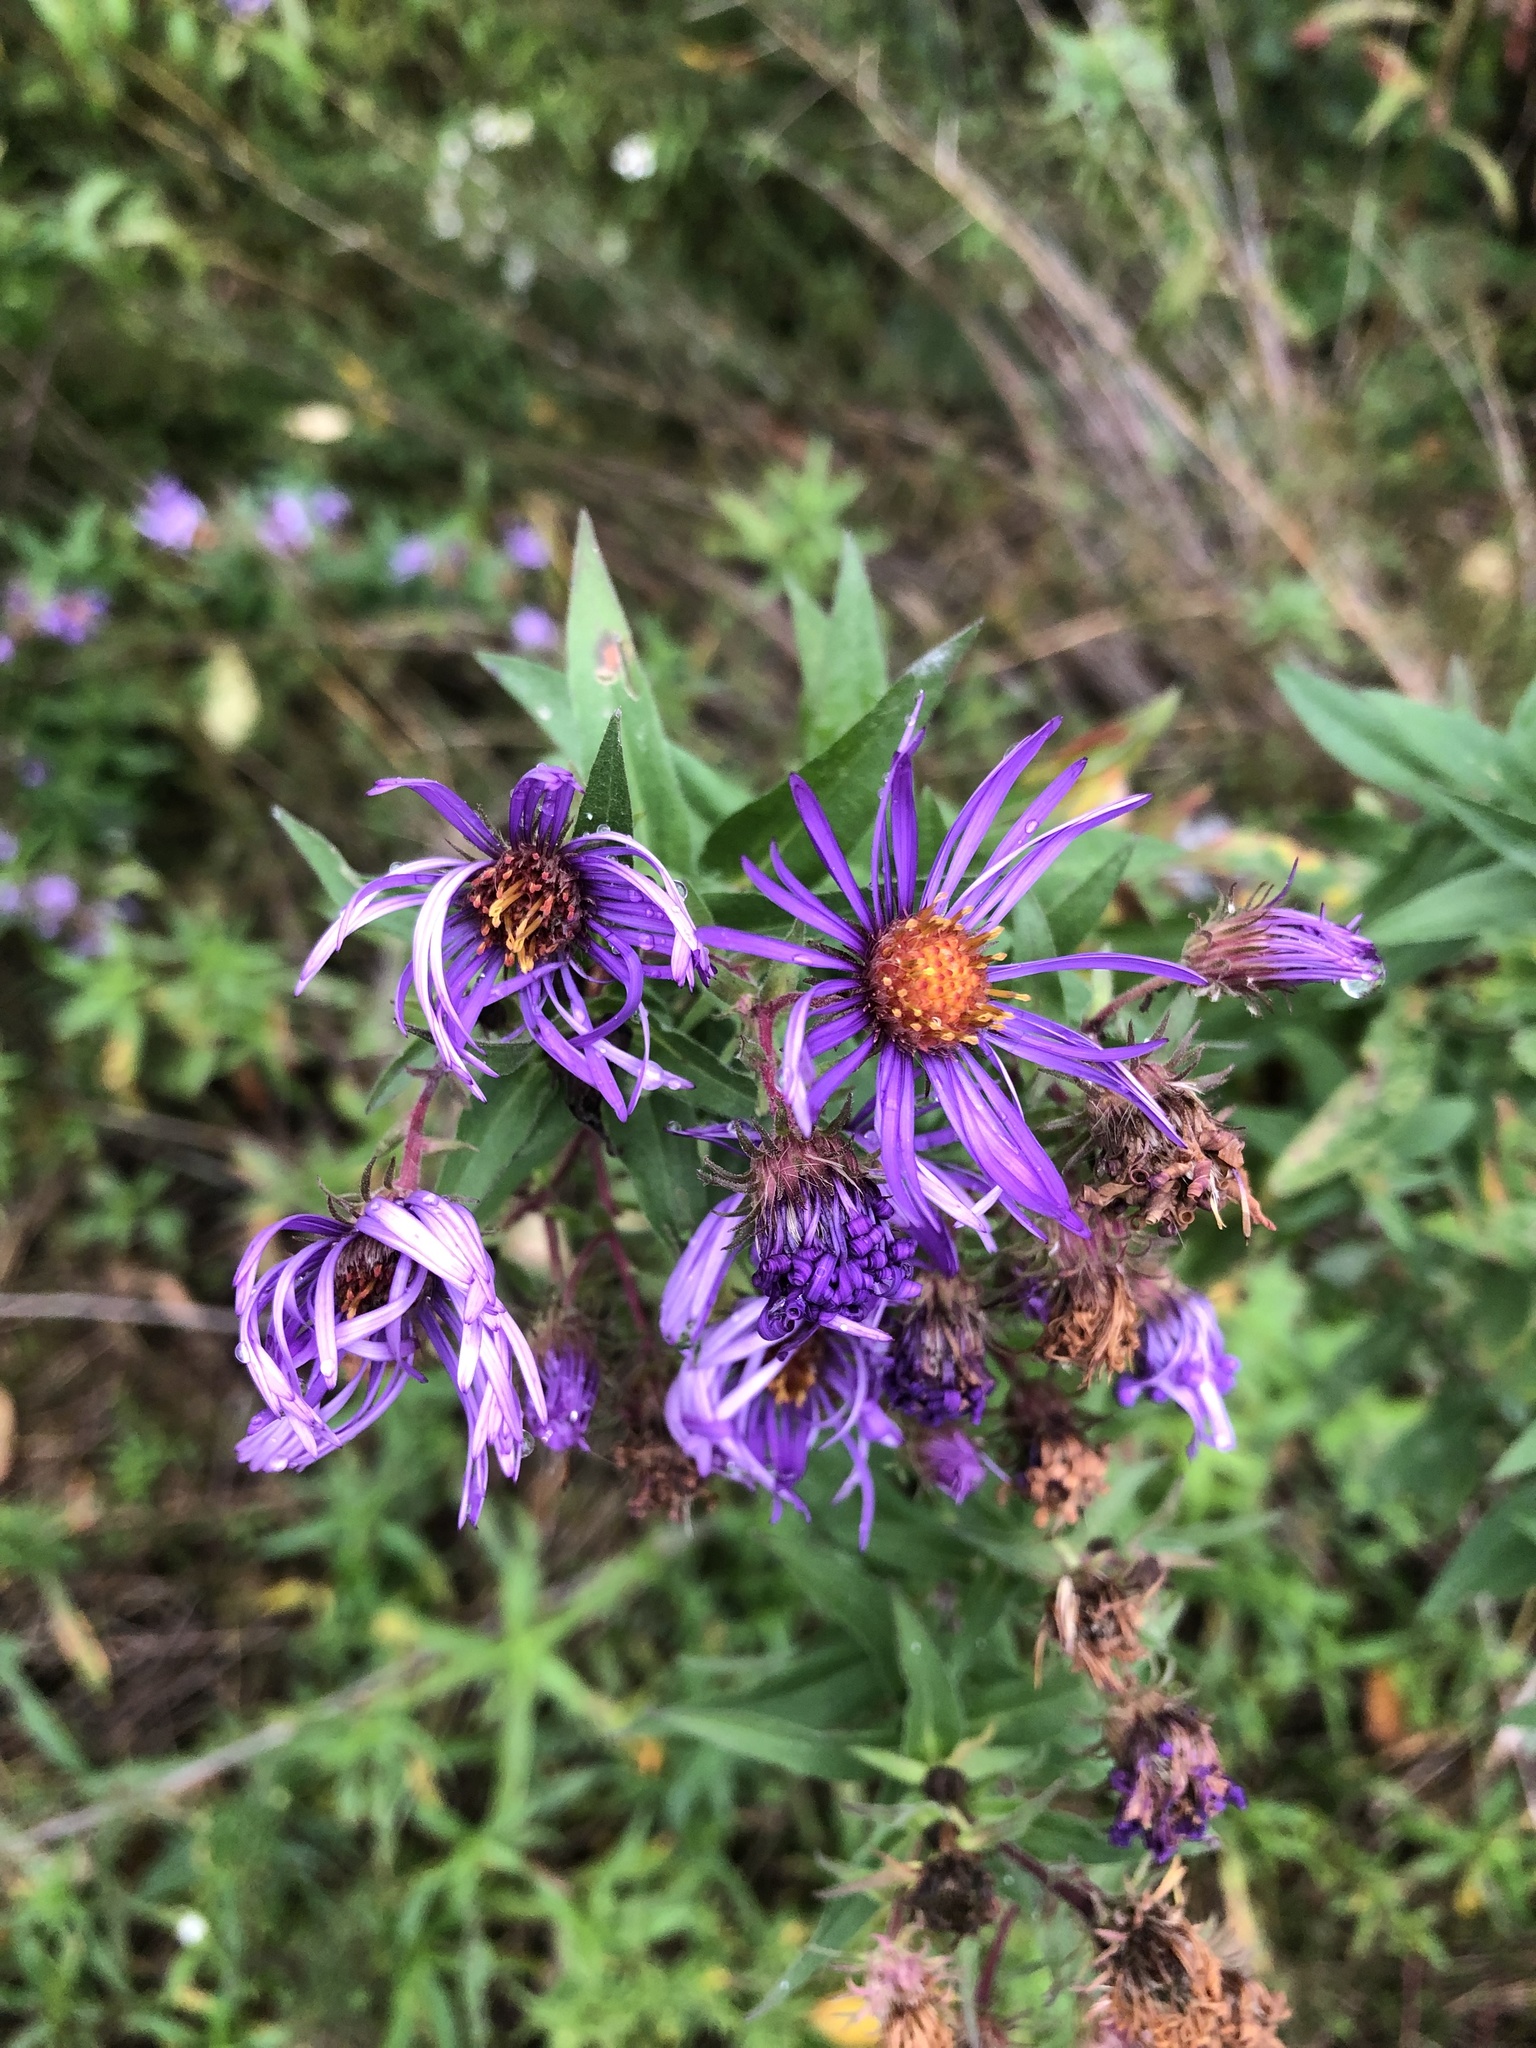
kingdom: Plantae
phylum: Tracheophyta
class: Magnoliopsida
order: Asterales
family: Asteraceae
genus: Symphyotrichum
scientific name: Symphyotrichum novae-angliae
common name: Michaelmas daisy
